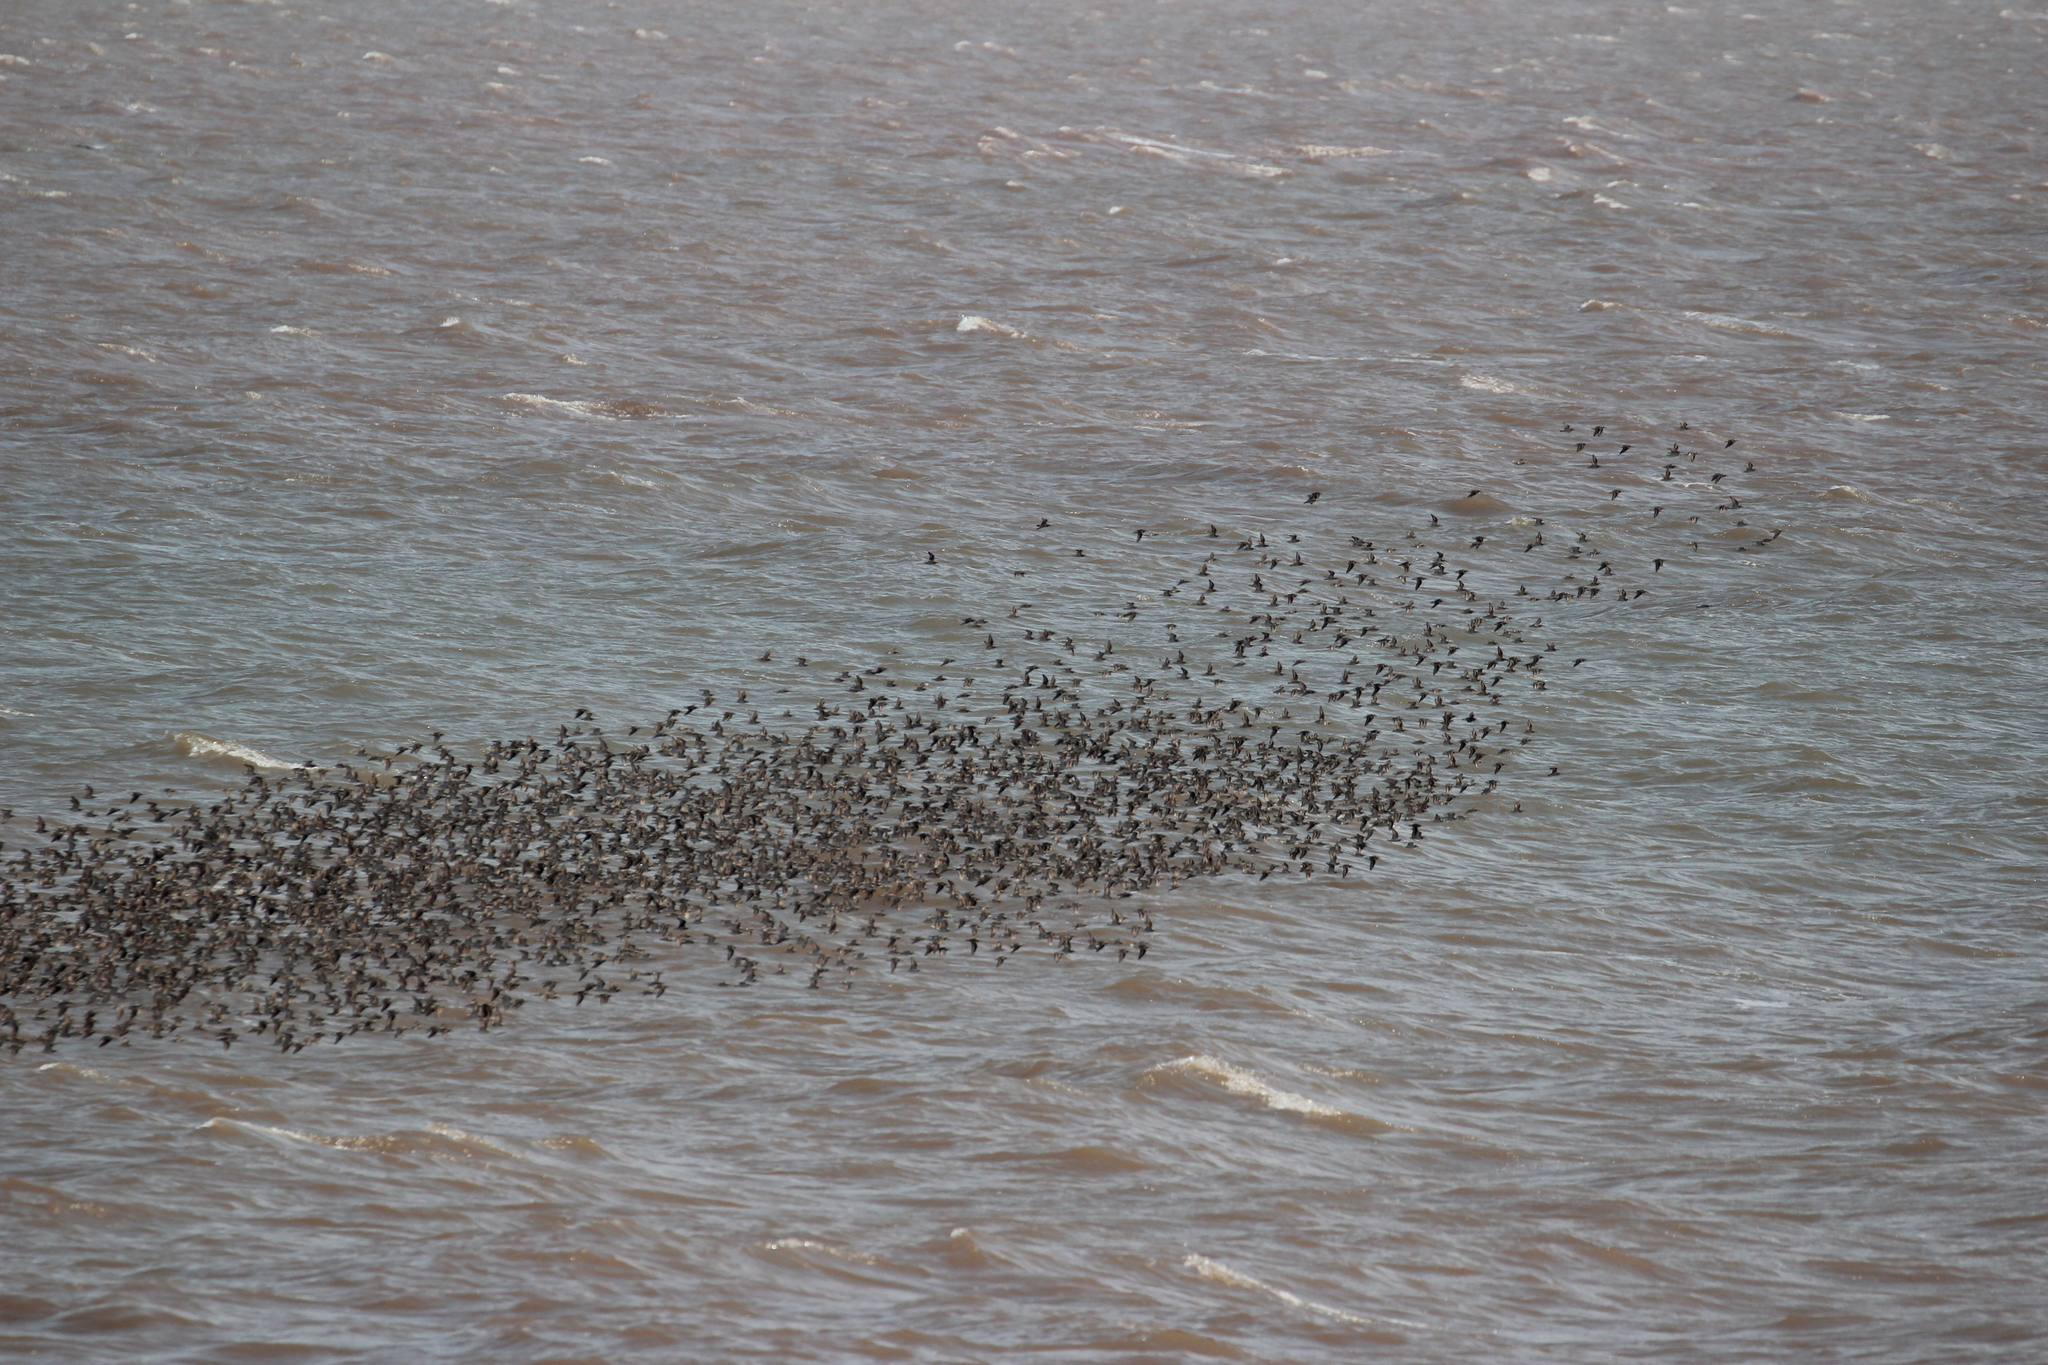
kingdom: Animalia
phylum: Chordata
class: Aves
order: Charadriiformes
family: Scolopacidae
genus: Calidris
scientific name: Calidris pusilla
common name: Semipalmated sandpiper
